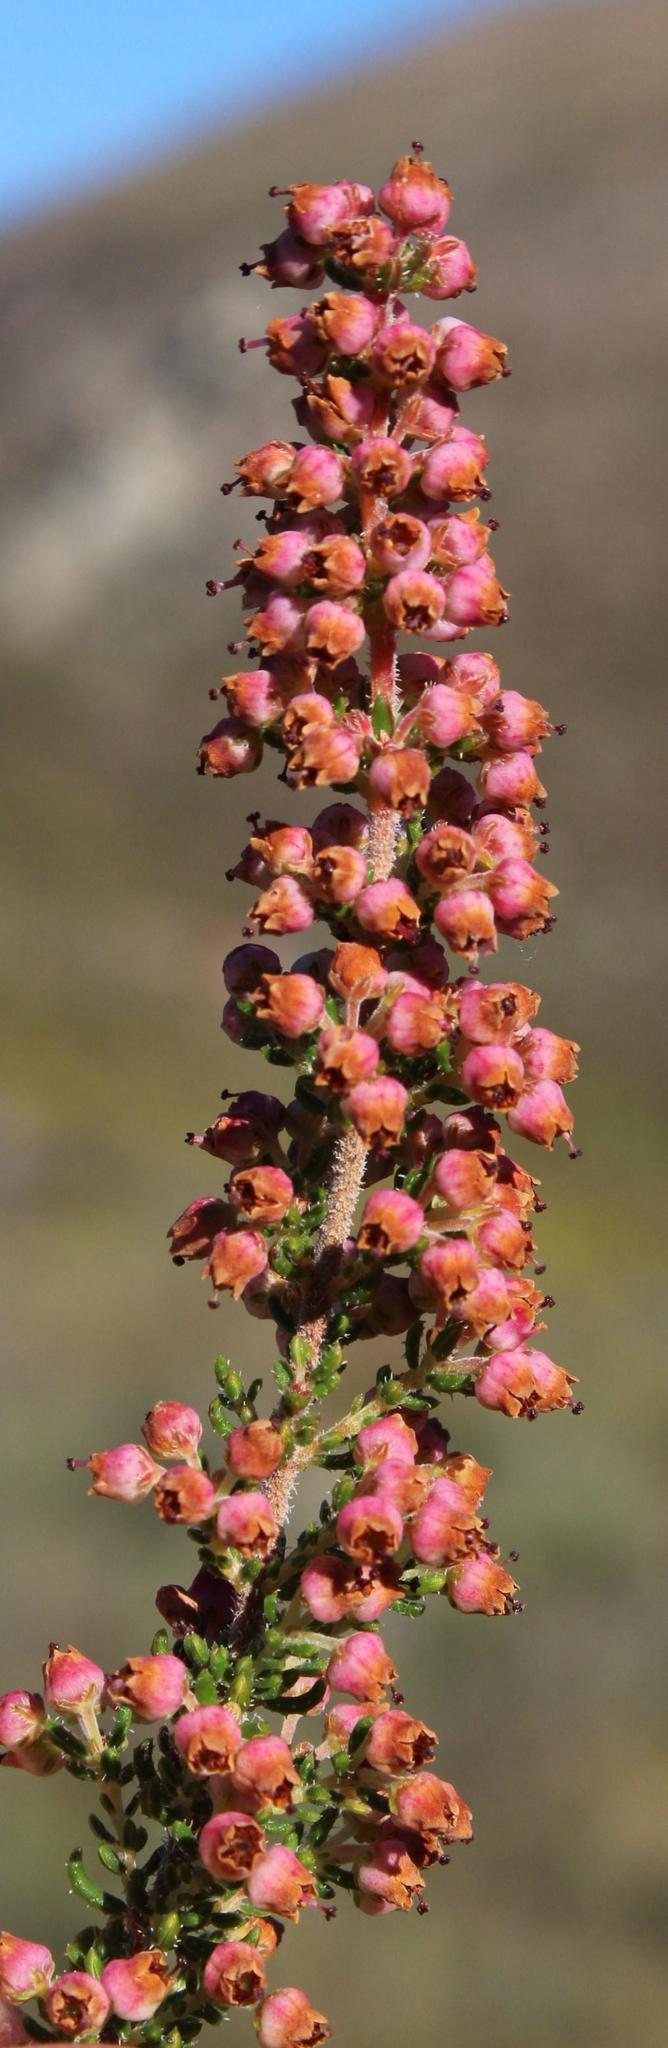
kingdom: Plantae
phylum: Tracheophyta
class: Magnoliopsida
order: Ericales
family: Ericaceae
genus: Erica
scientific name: Erica setacea
